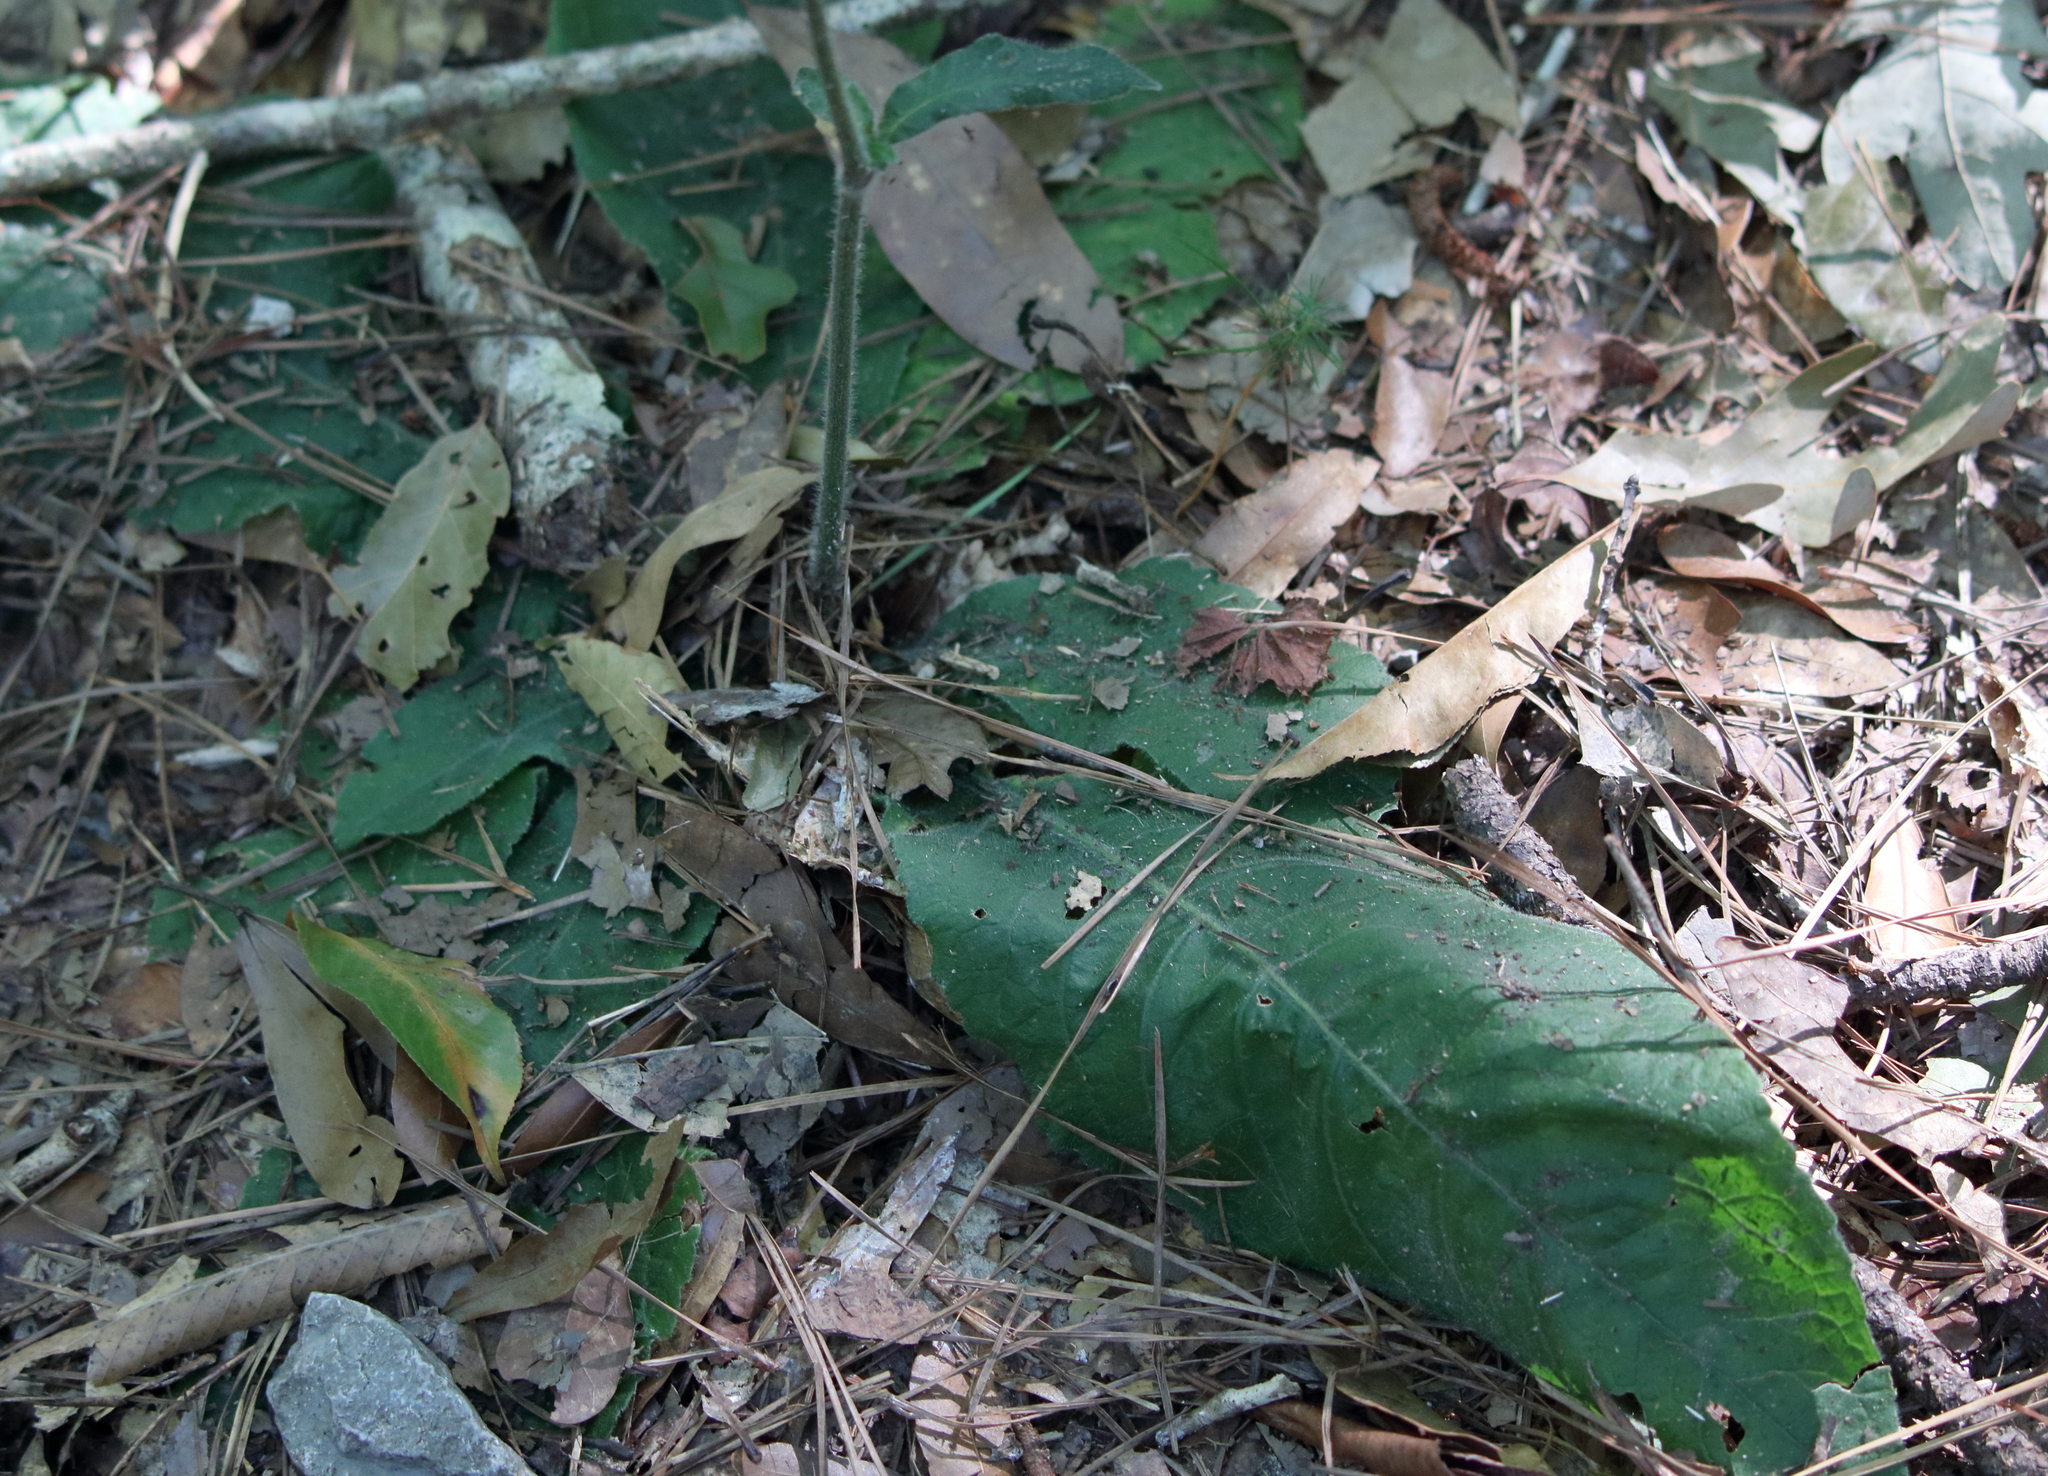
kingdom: Plantae
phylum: Tracheophyta
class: Magnoliopsida
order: Asterales
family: Asteraceae
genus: Elephantopus
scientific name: Elephantopus tomentosus
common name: Tobacco-weed
